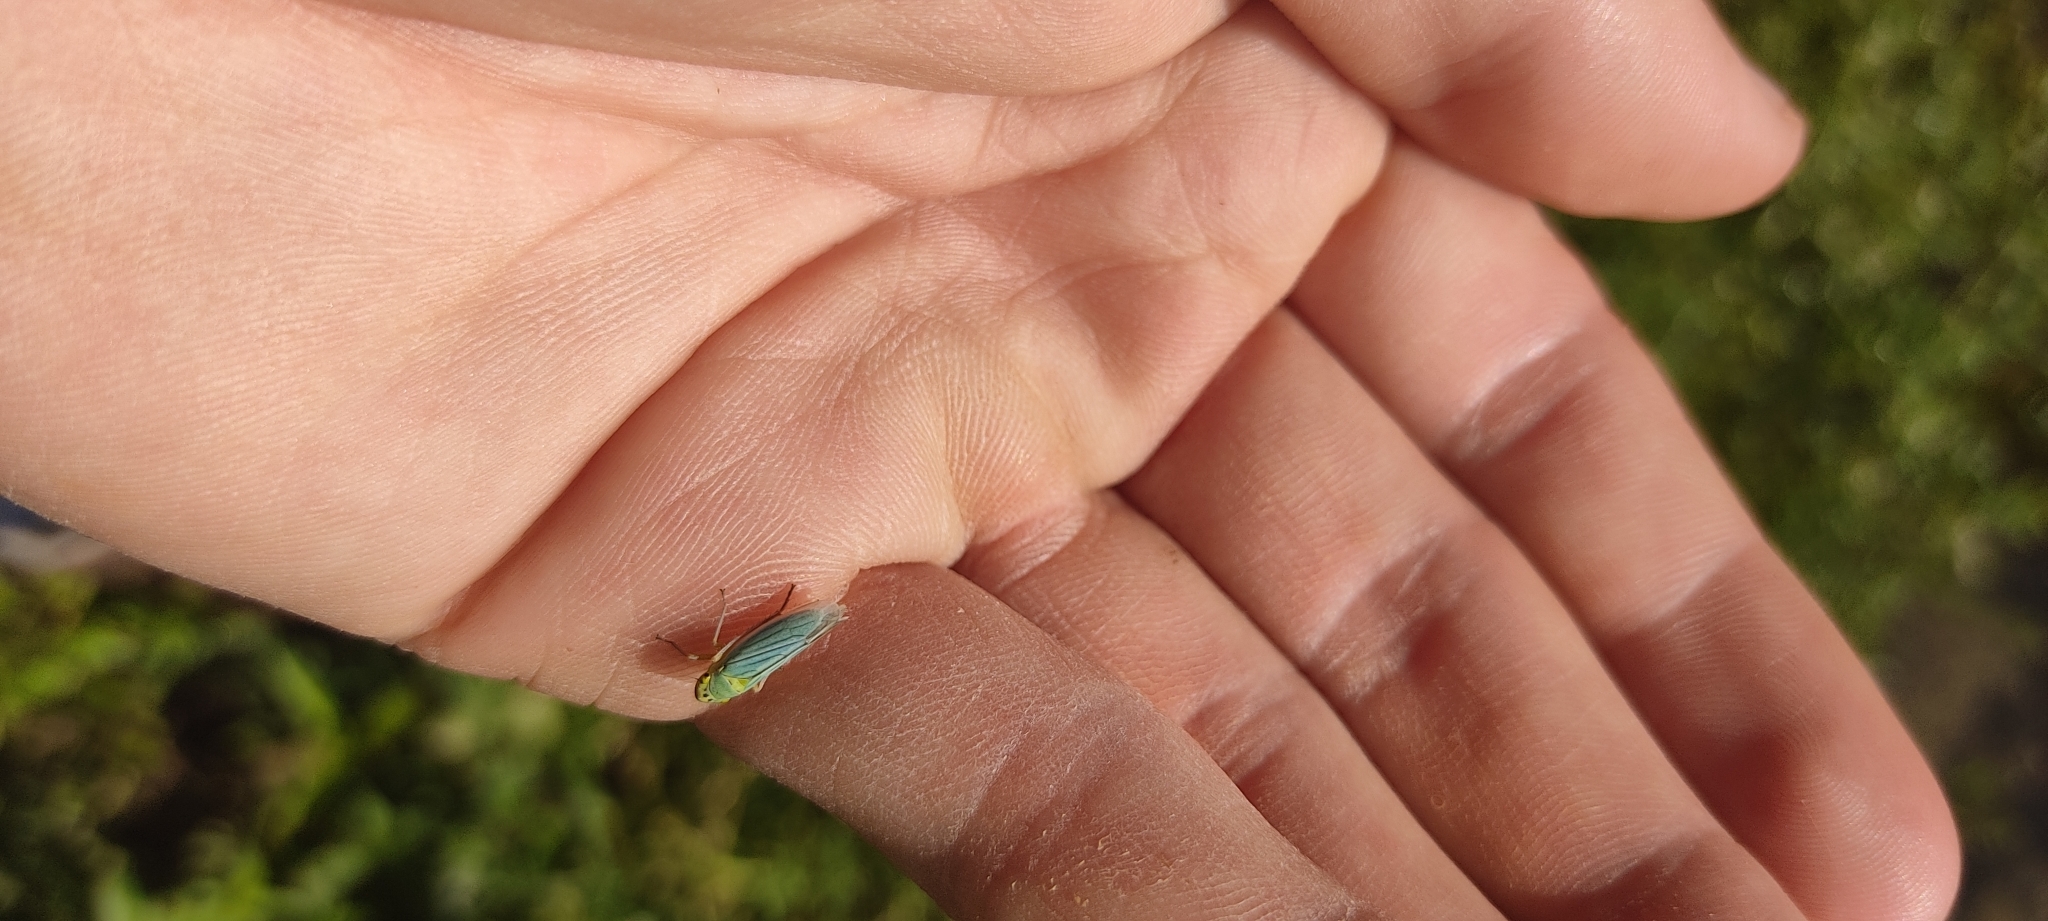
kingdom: Animalia
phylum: Arthropoda
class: Insecta
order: Hemiptera
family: Cicadellidae
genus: Cicadella
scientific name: Cicadella viridis
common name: Leafhopper
